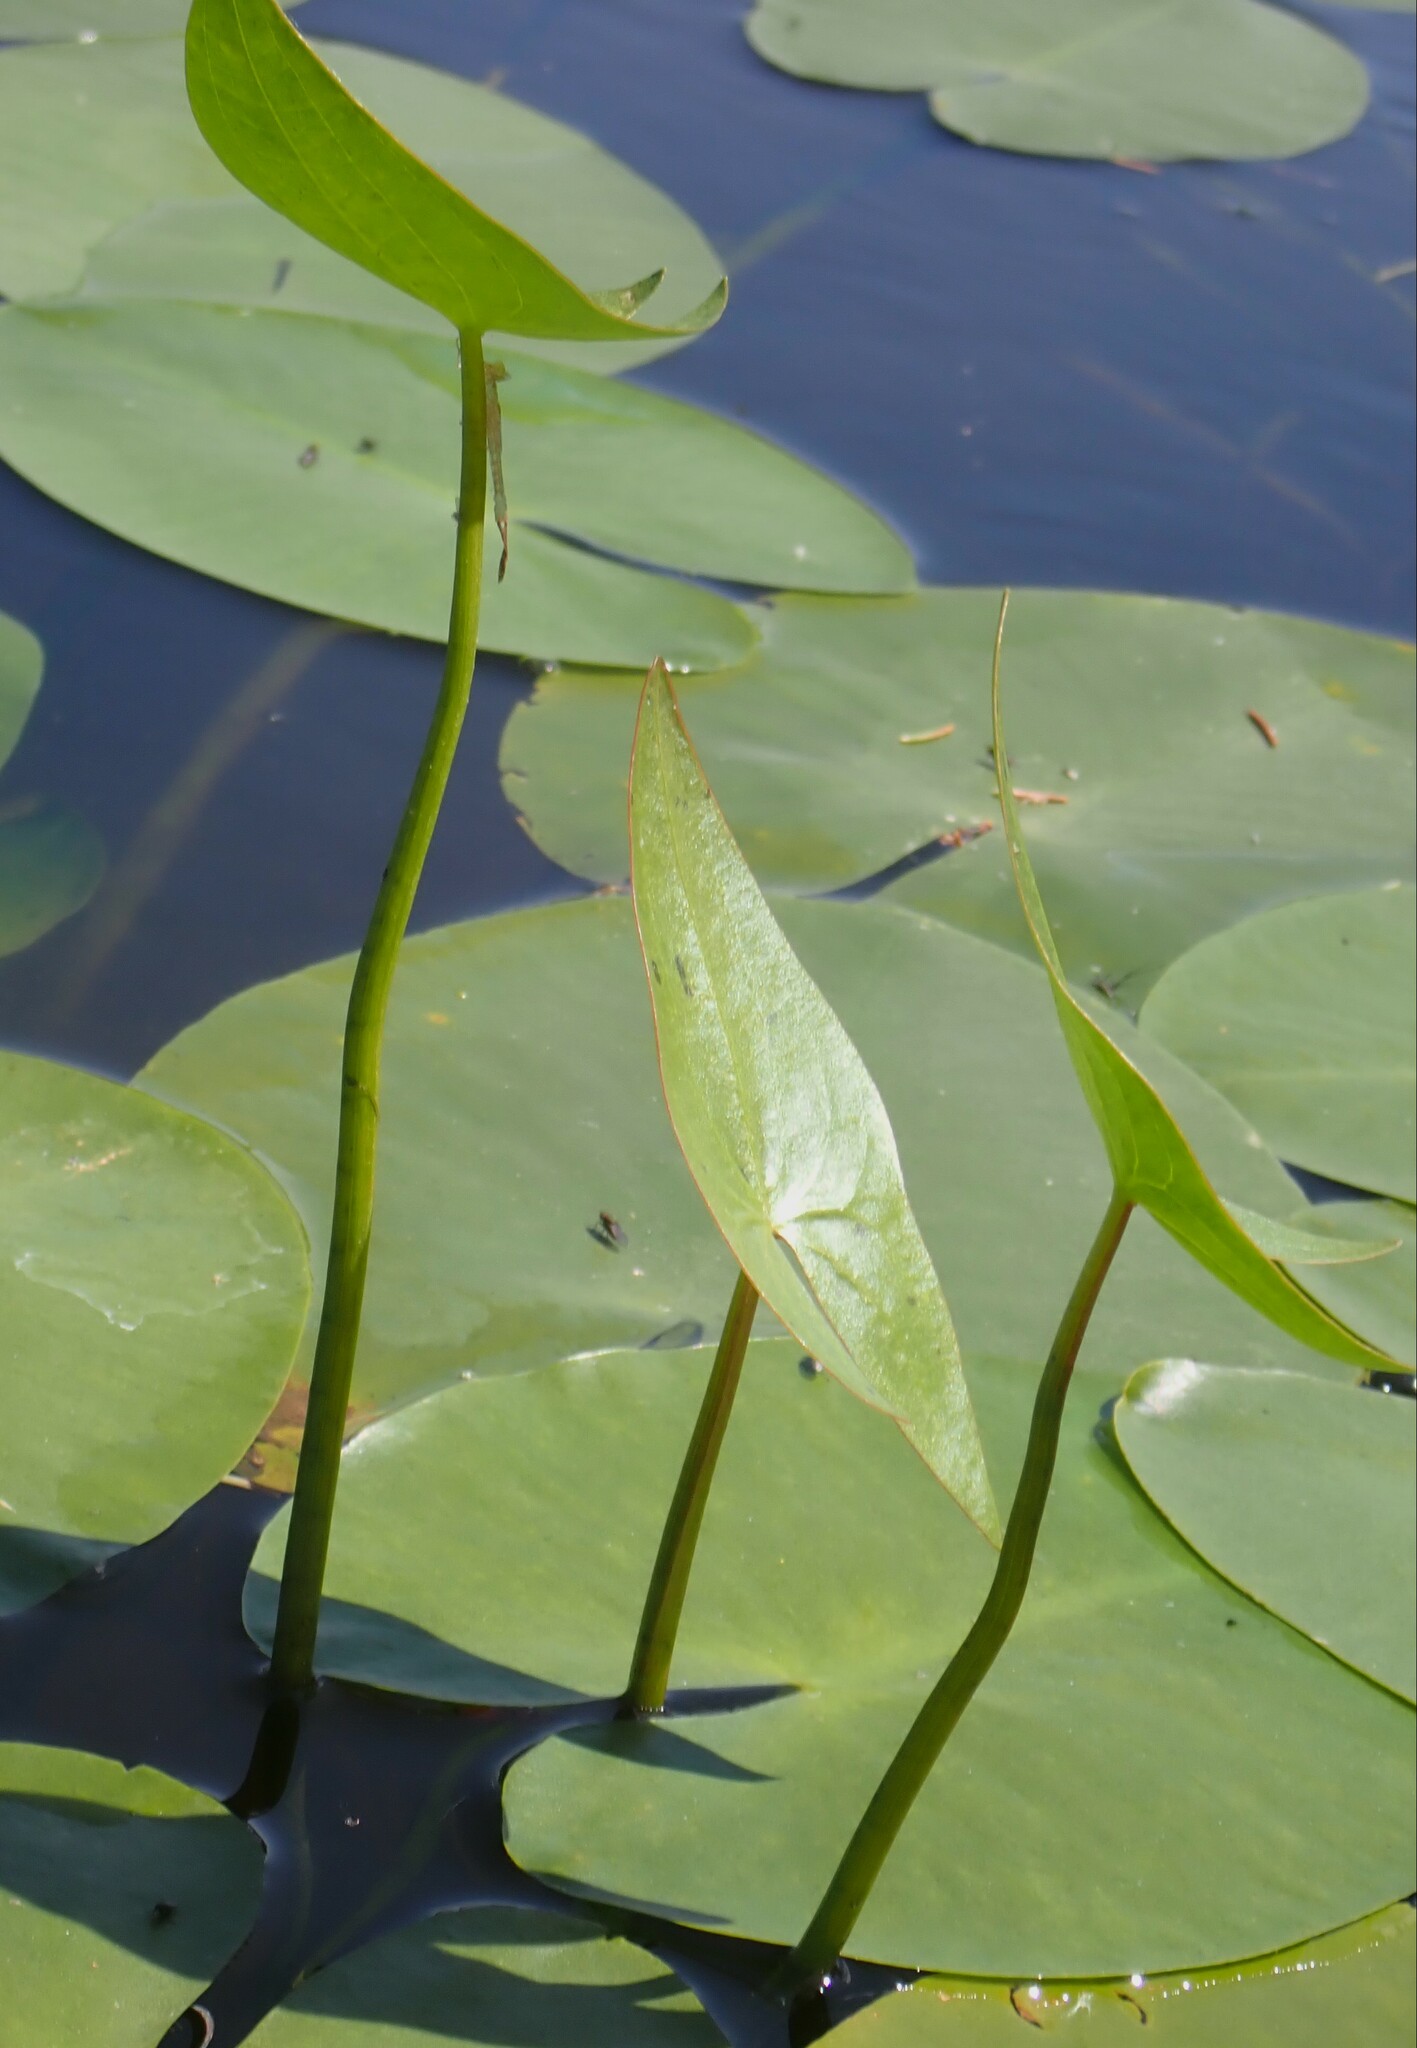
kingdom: Plantae
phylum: Tracheophyta
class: Liliopsida
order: Alismatales
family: Alismataceae
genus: Sagittaria
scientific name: Sagittaria cuneata
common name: Northern arrowhead
